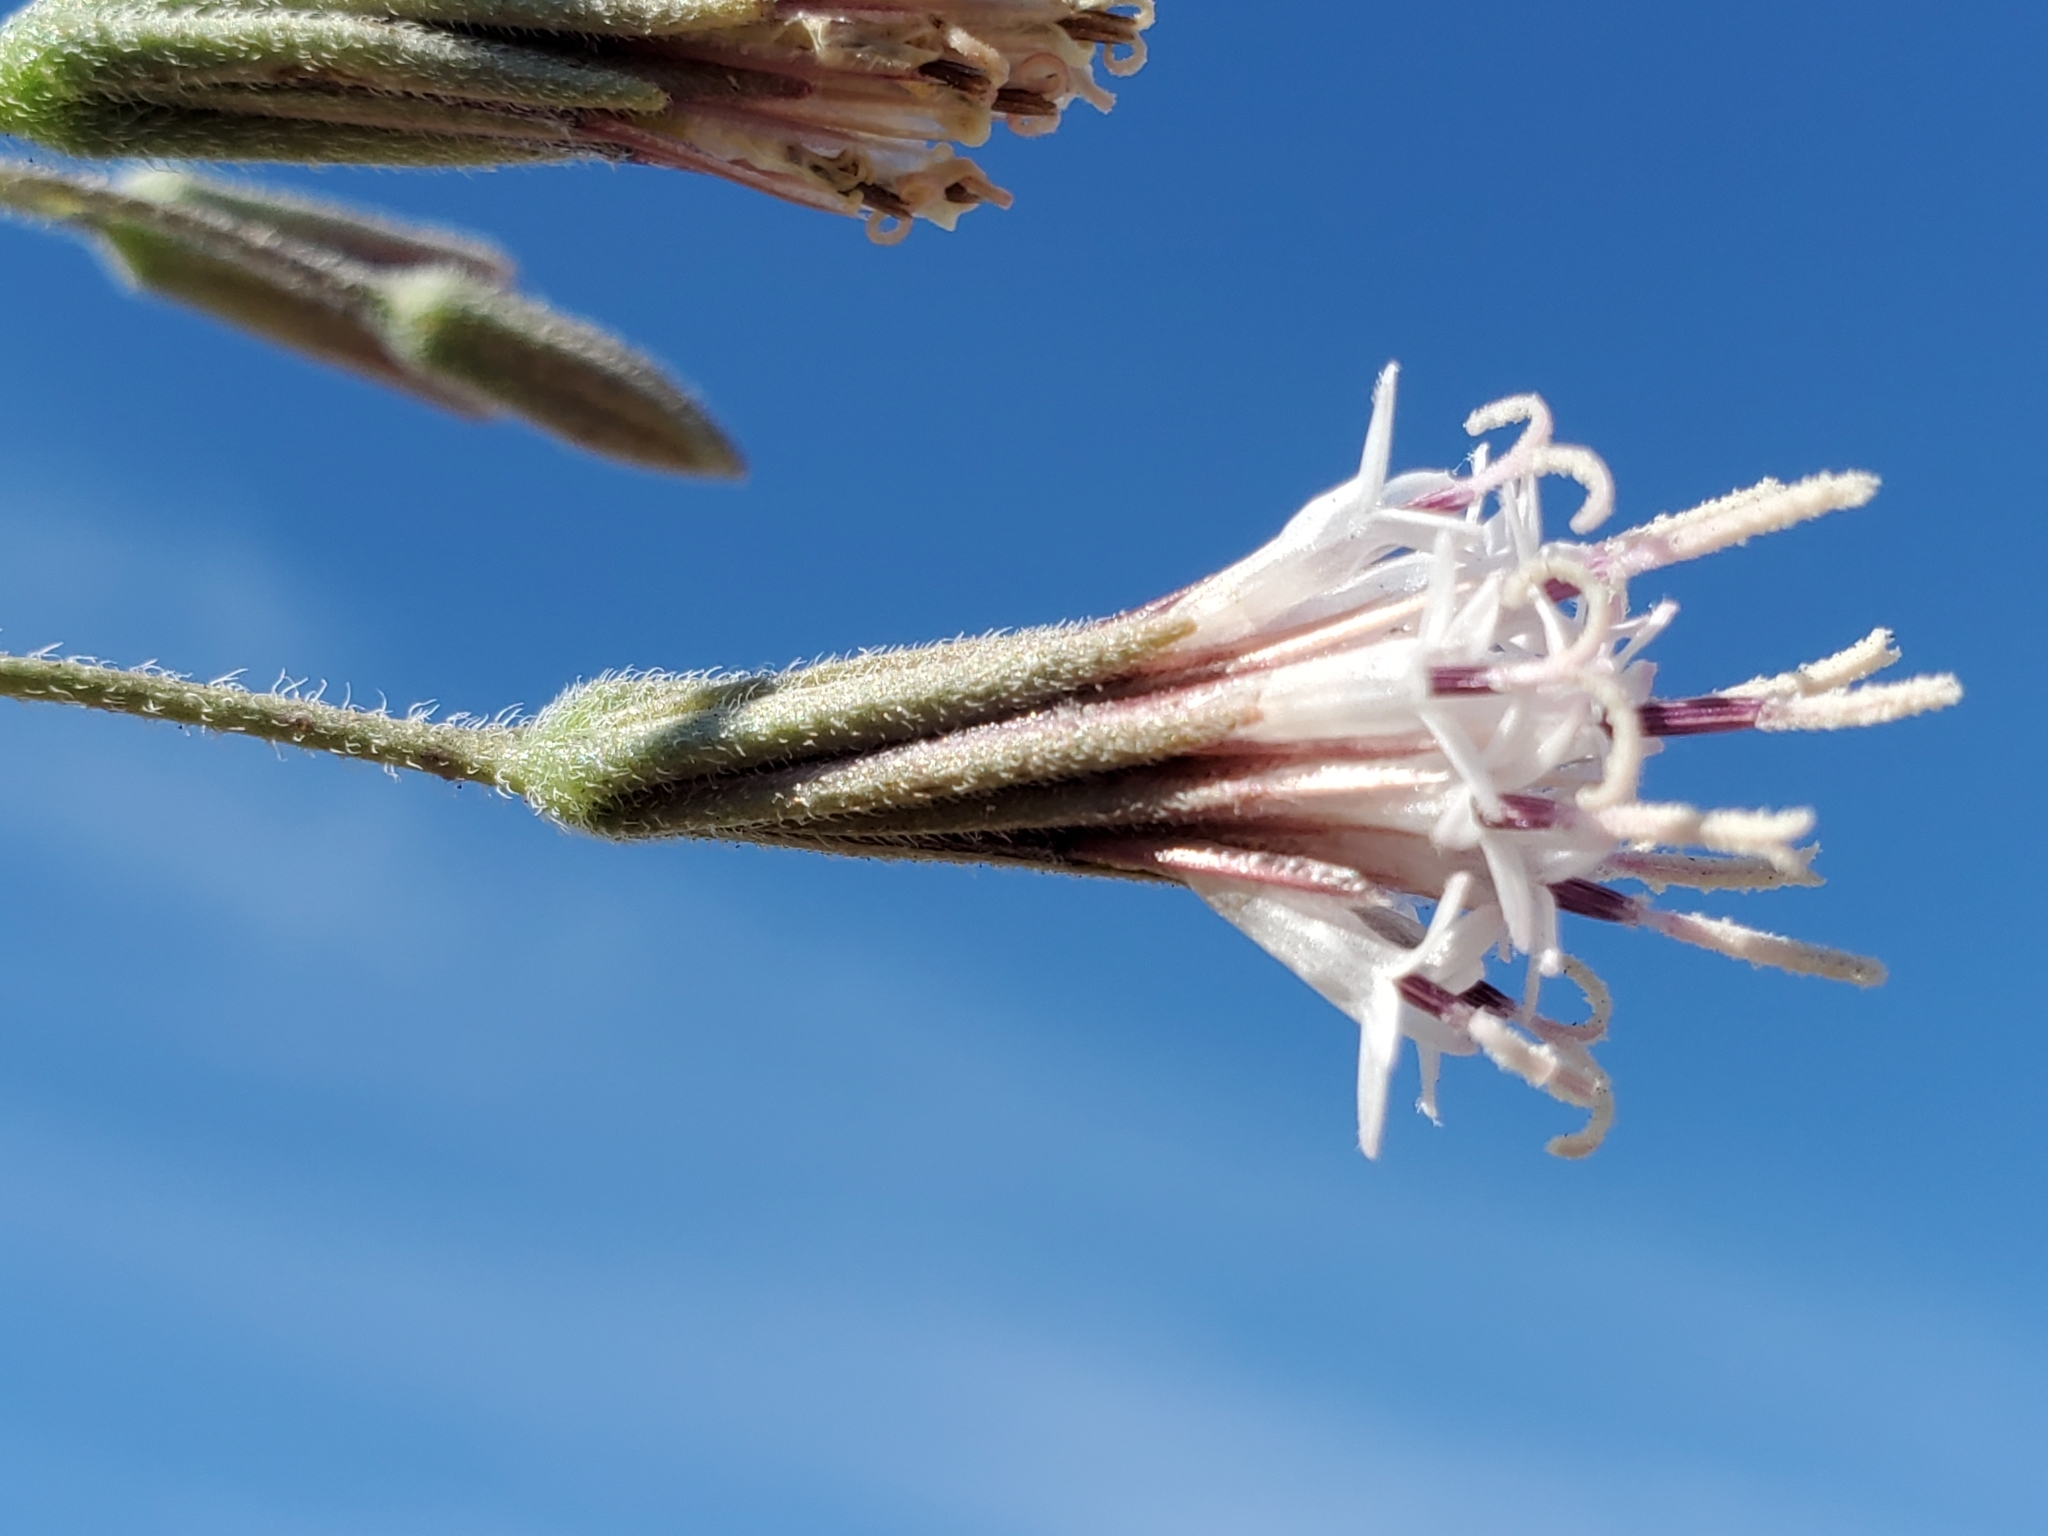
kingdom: Plantae
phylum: Tracheophyta
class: Magnoliopsida
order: Asterales
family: Asteraceae
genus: Palafoxia
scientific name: Palafoxia arida
